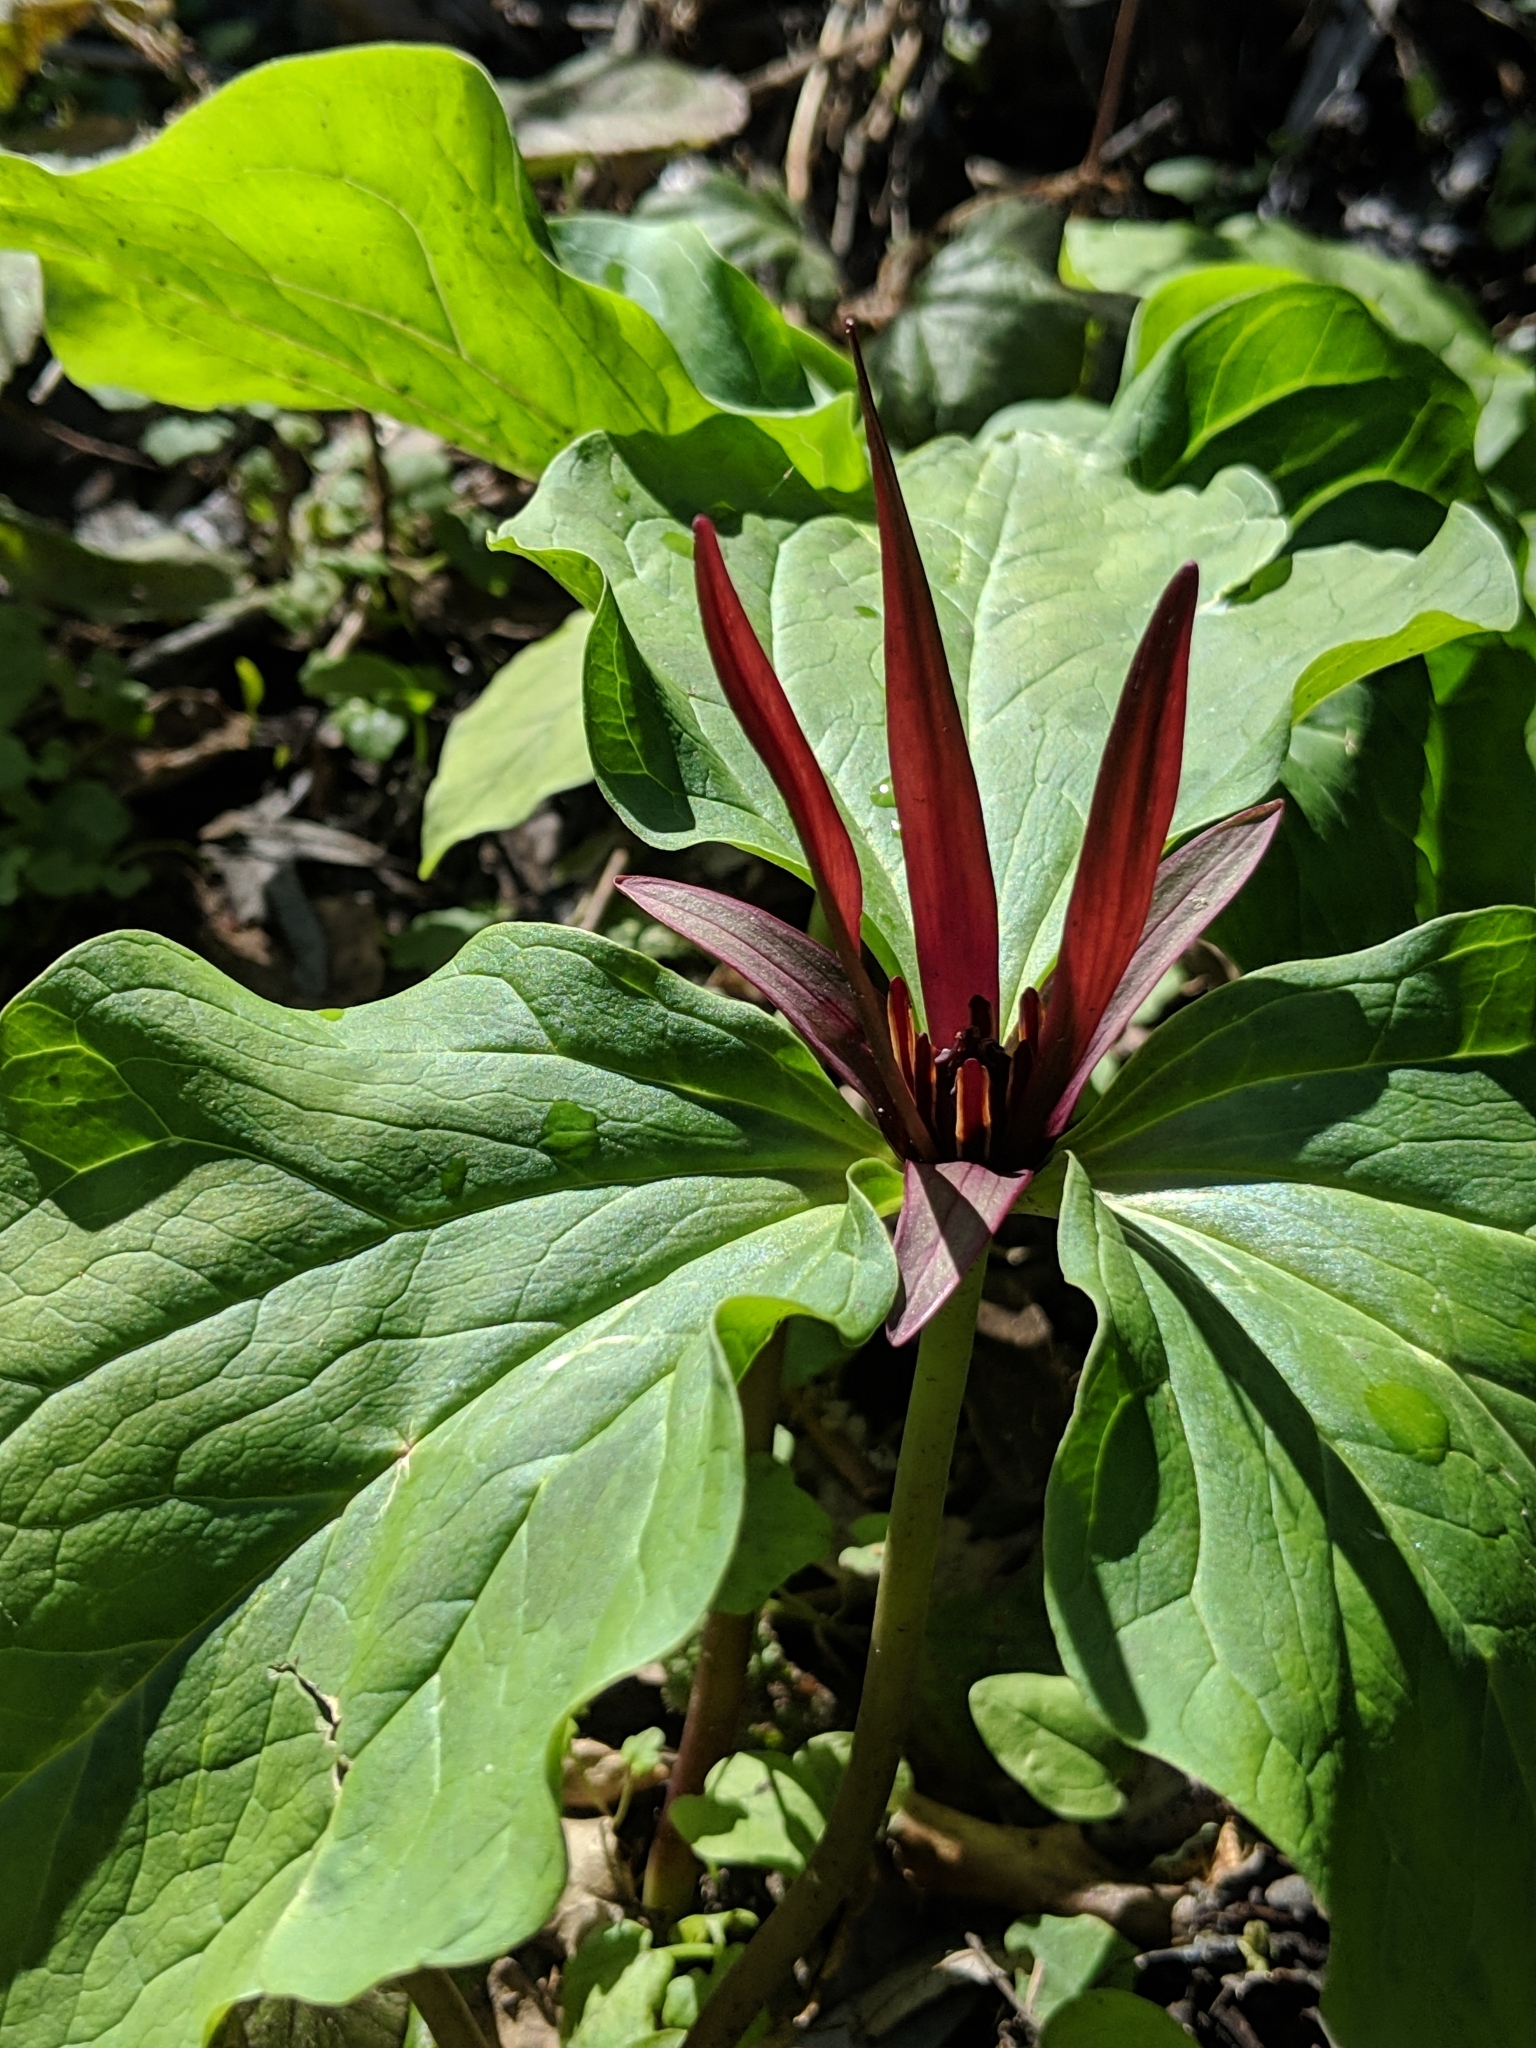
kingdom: Plantae
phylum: Tracheophyta
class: Liliopsida
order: Liliales
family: Melanthiaceae
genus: Trillium
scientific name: Trillium angustipetalum
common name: Narrow-petaled trillium
